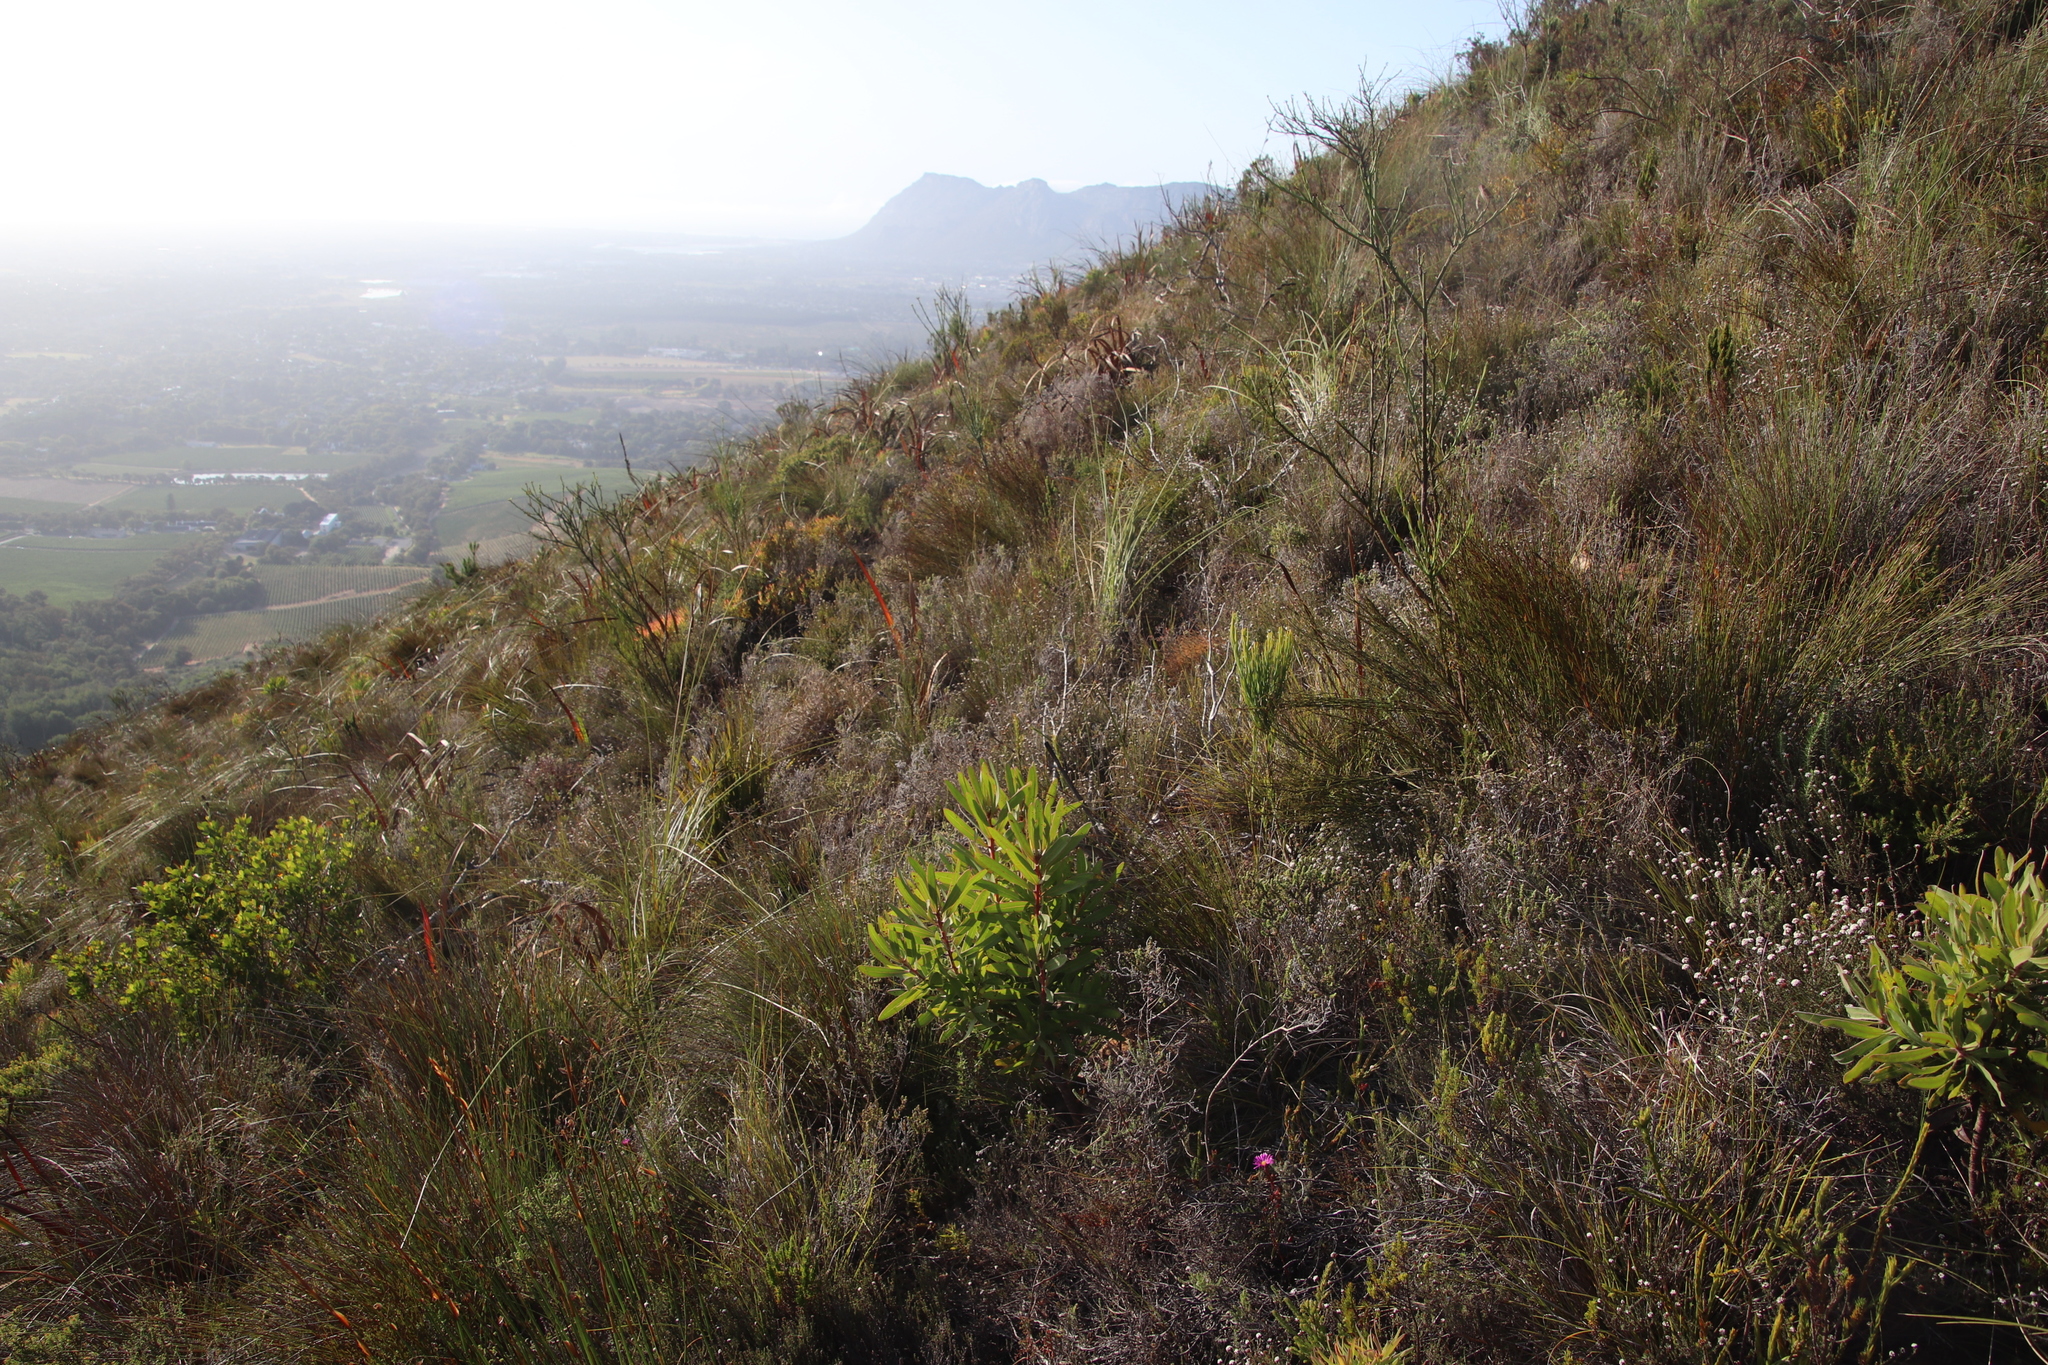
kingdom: Plantae
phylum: Tracheophyta
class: Magnoliopsida
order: Proteales
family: Proteaceae
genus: Protea
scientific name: Protea lepidocarpodendron
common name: Black-bearded protea
